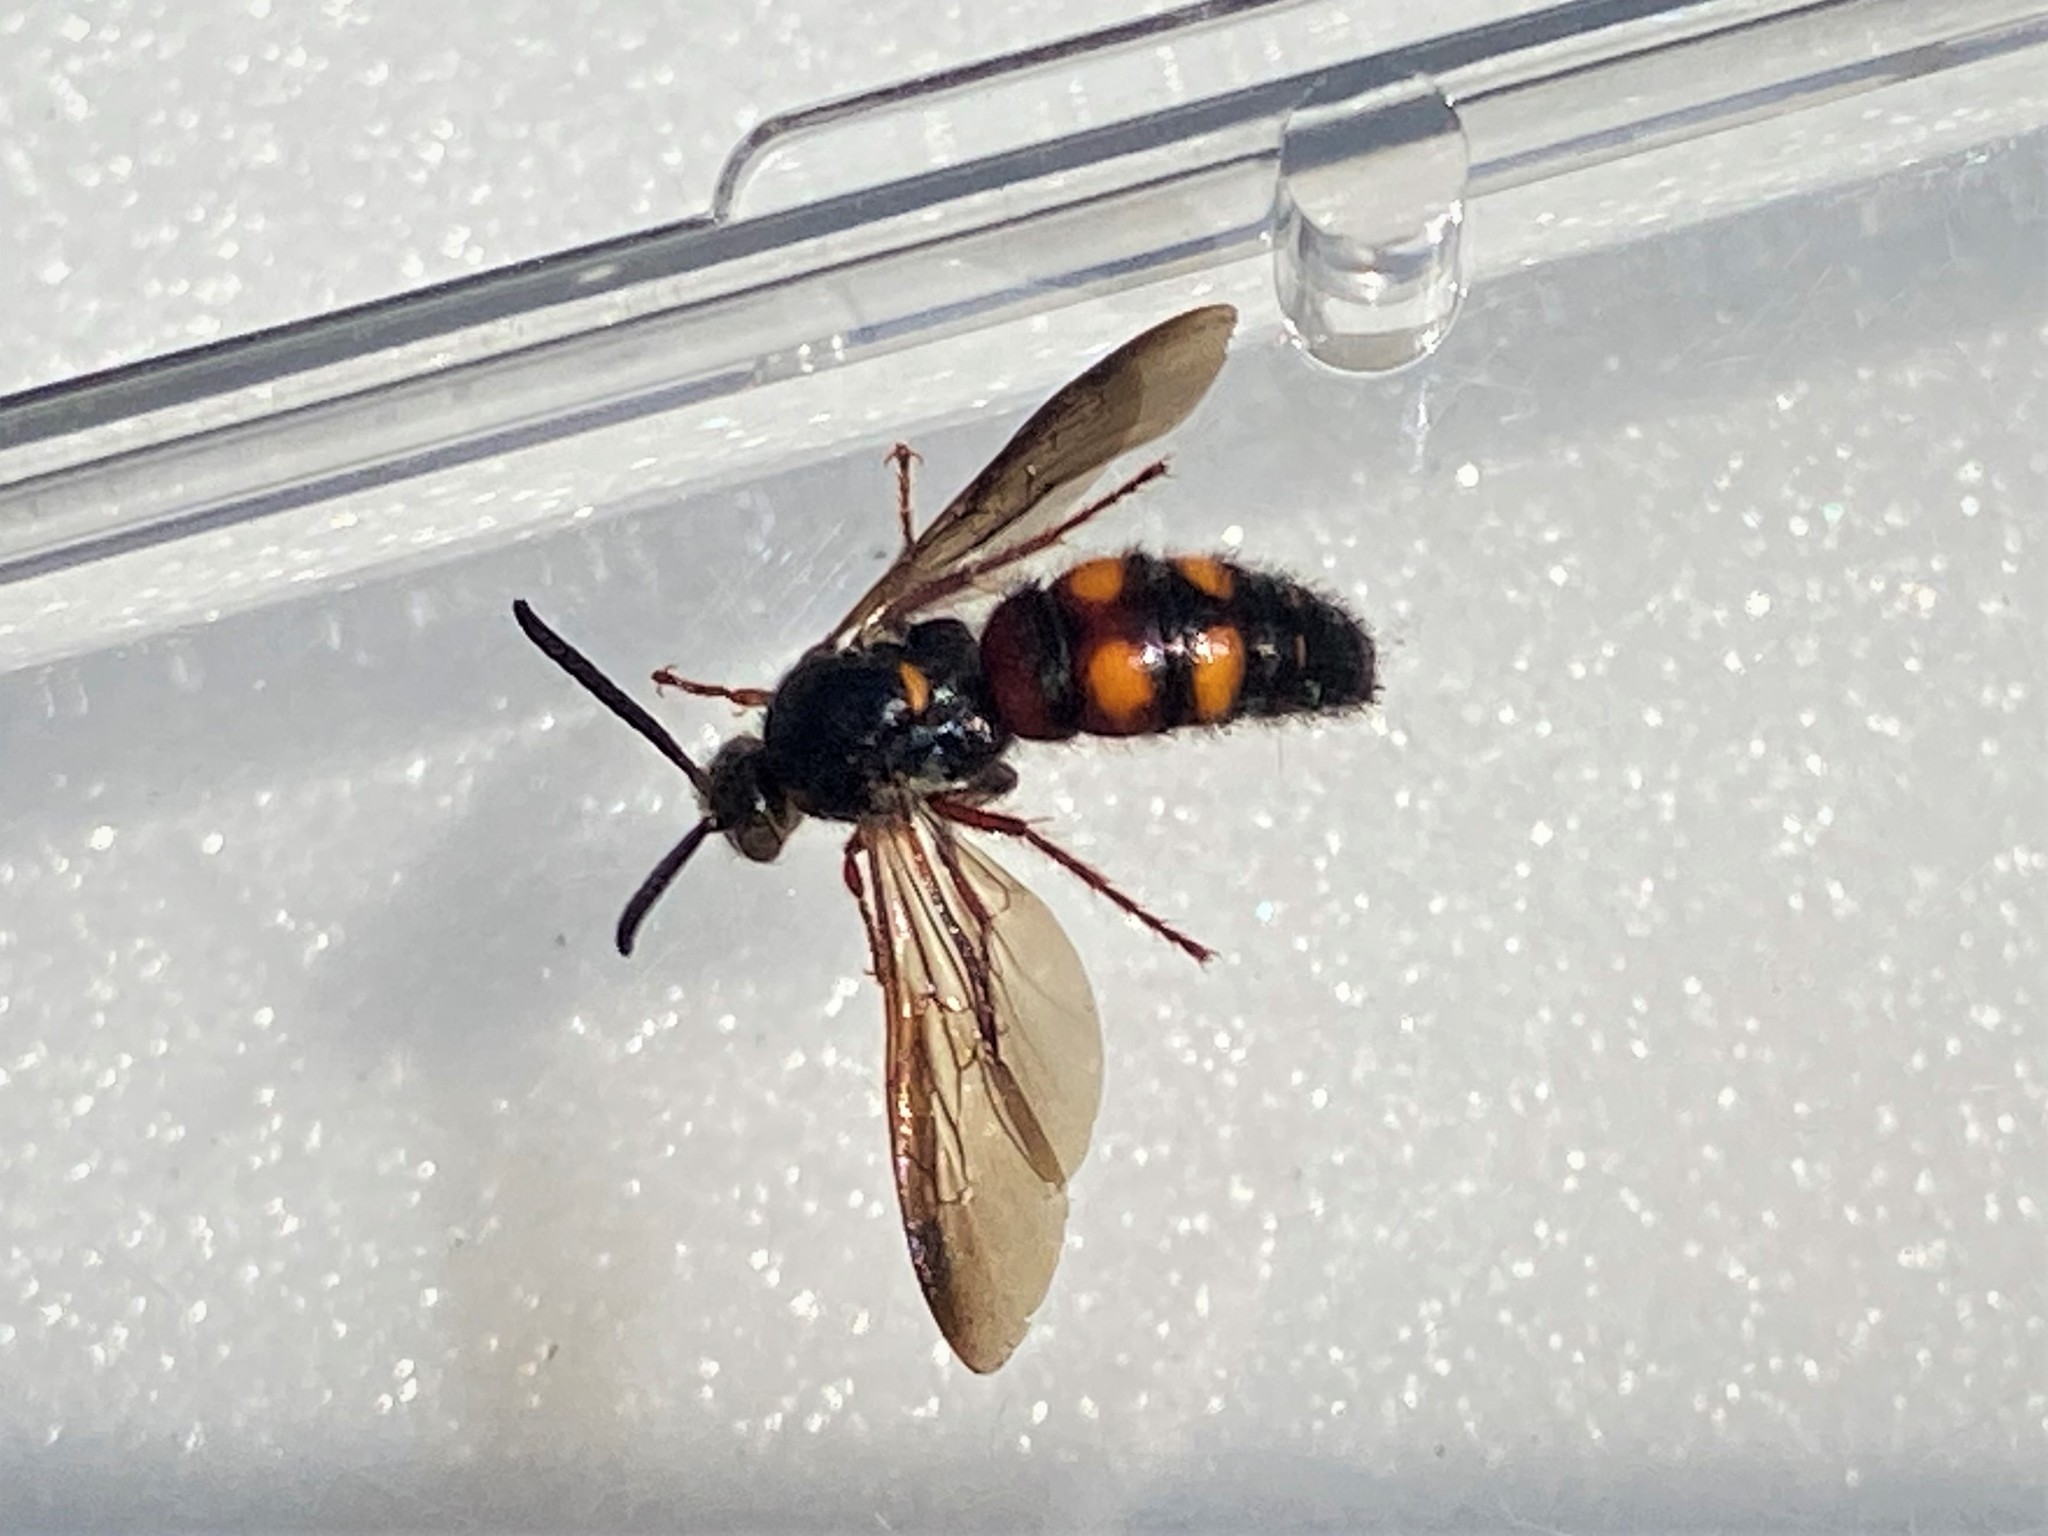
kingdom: Animalia
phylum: Arthropoda
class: Insecta
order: Hymenoptera
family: Scoliidae
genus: Scolia
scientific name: Scolia nobilitata
